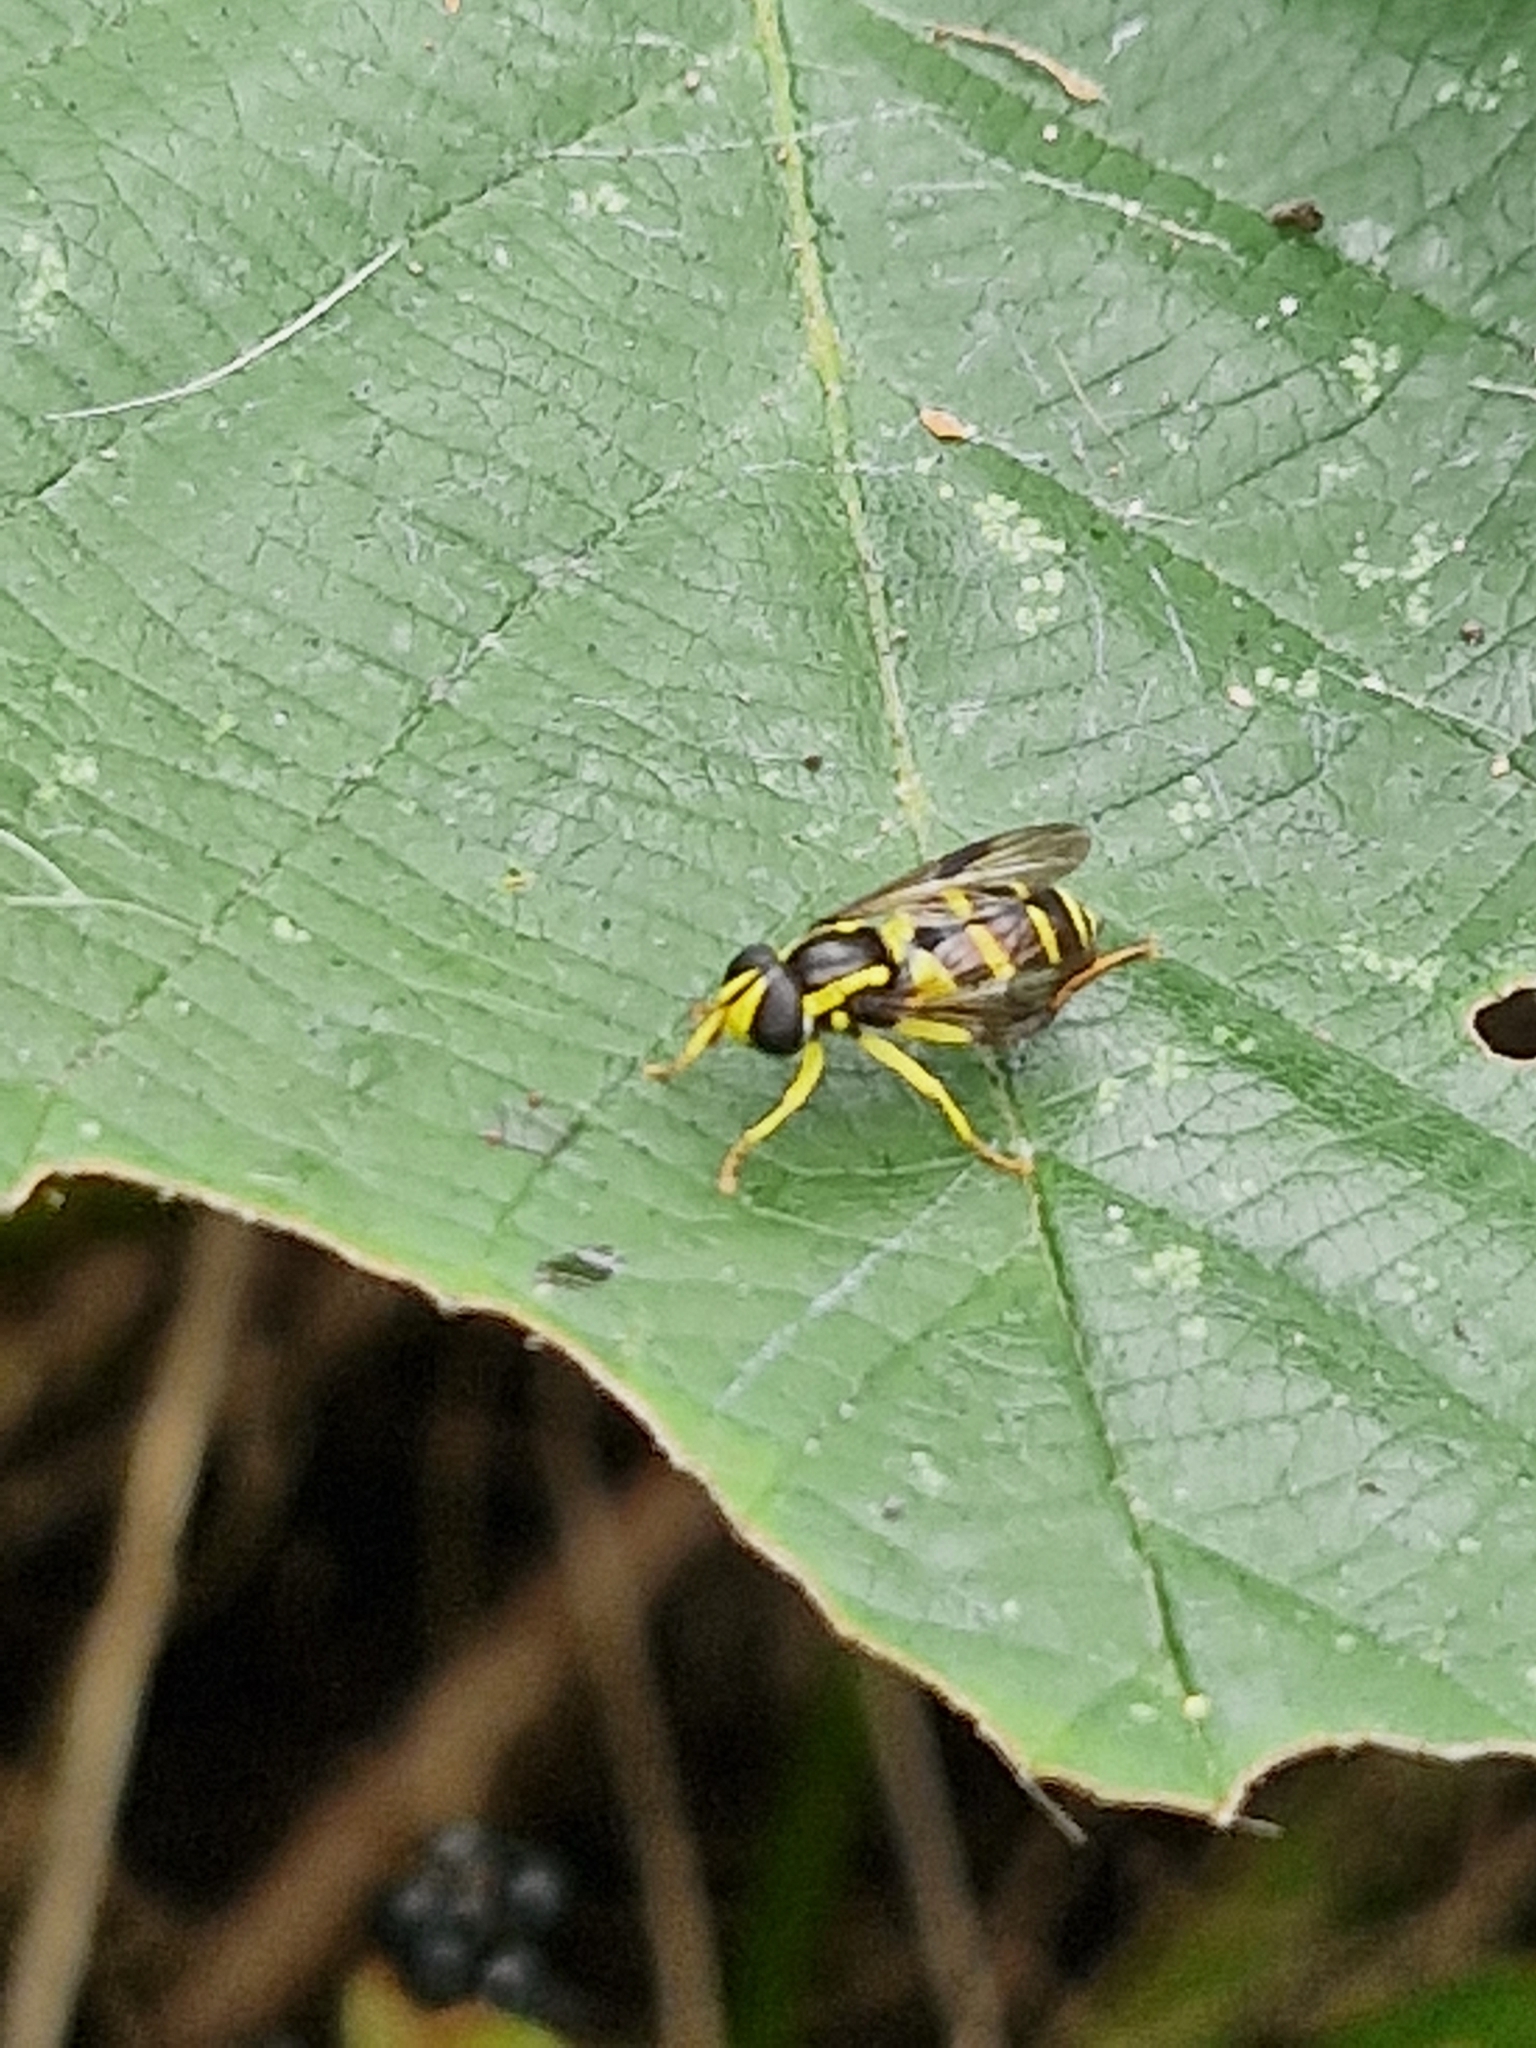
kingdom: Animalia
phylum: Arthropoda
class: Insecta
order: Diptera
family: Syrphidae
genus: Philhelius
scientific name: Philhelius pedissequum
